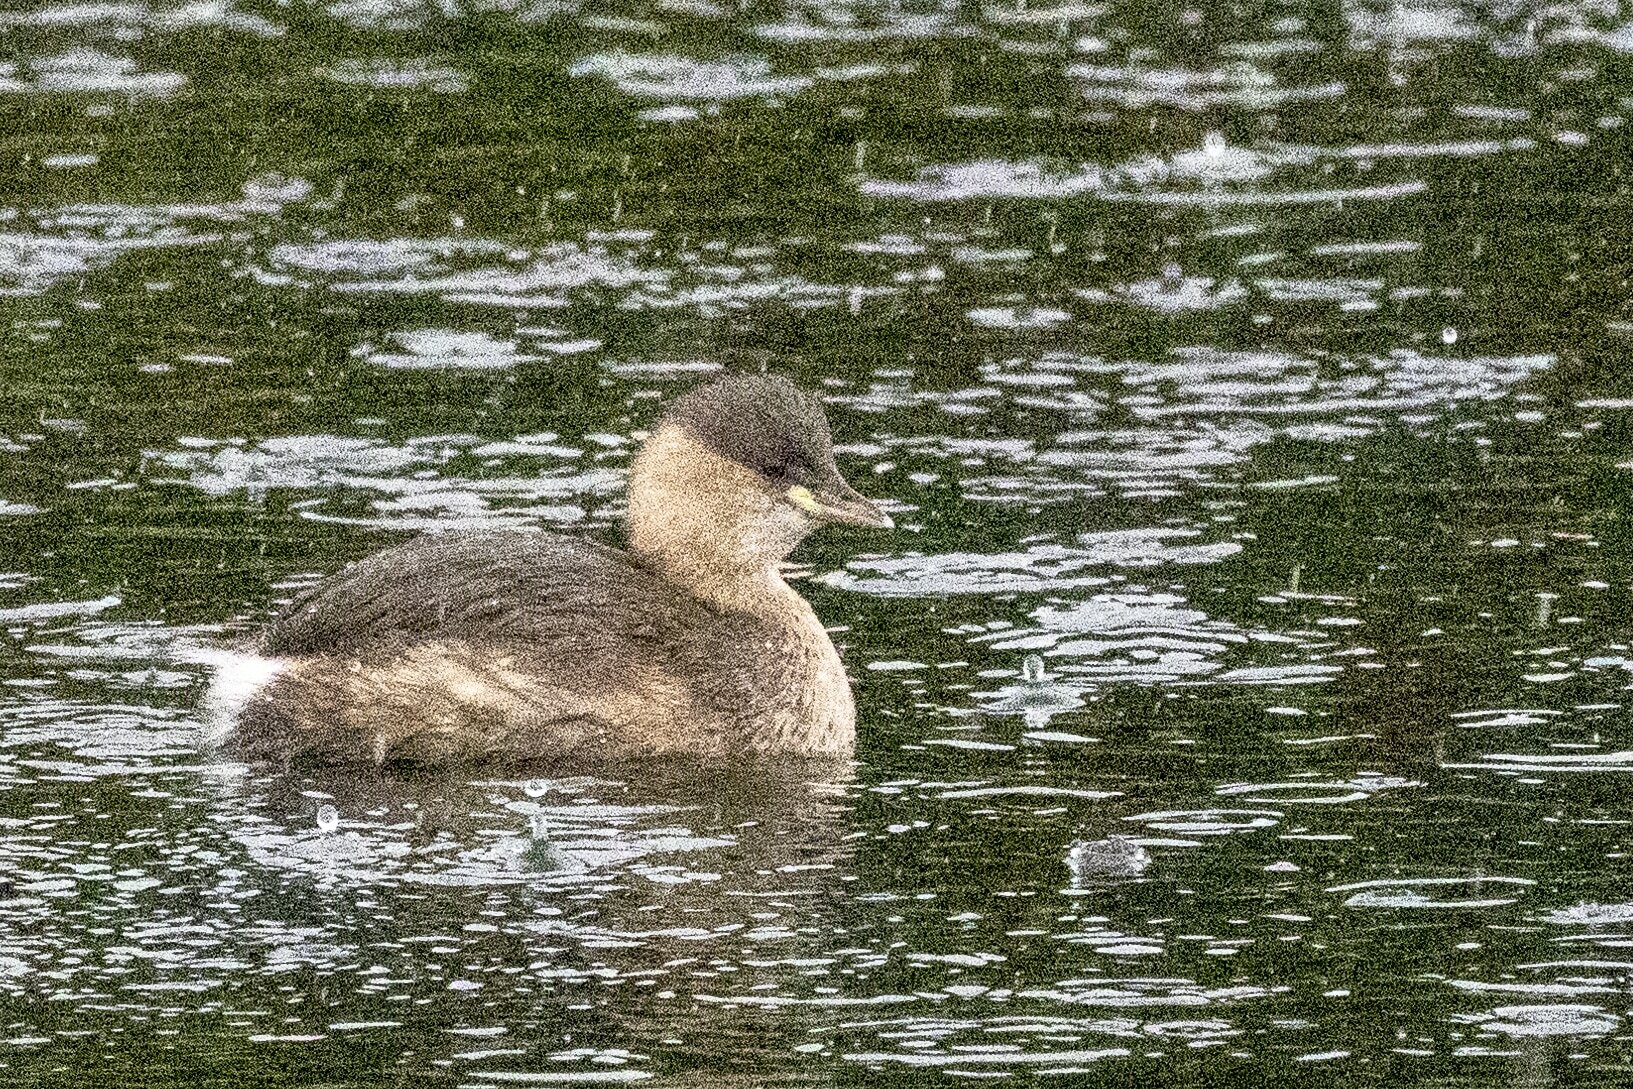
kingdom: Animalia
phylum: Chordata
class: Aves
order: Podicipediformes
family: Podicipedidae
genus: Tachybaptus
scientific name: Tachybaptus ruficollis
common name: Little grebe
